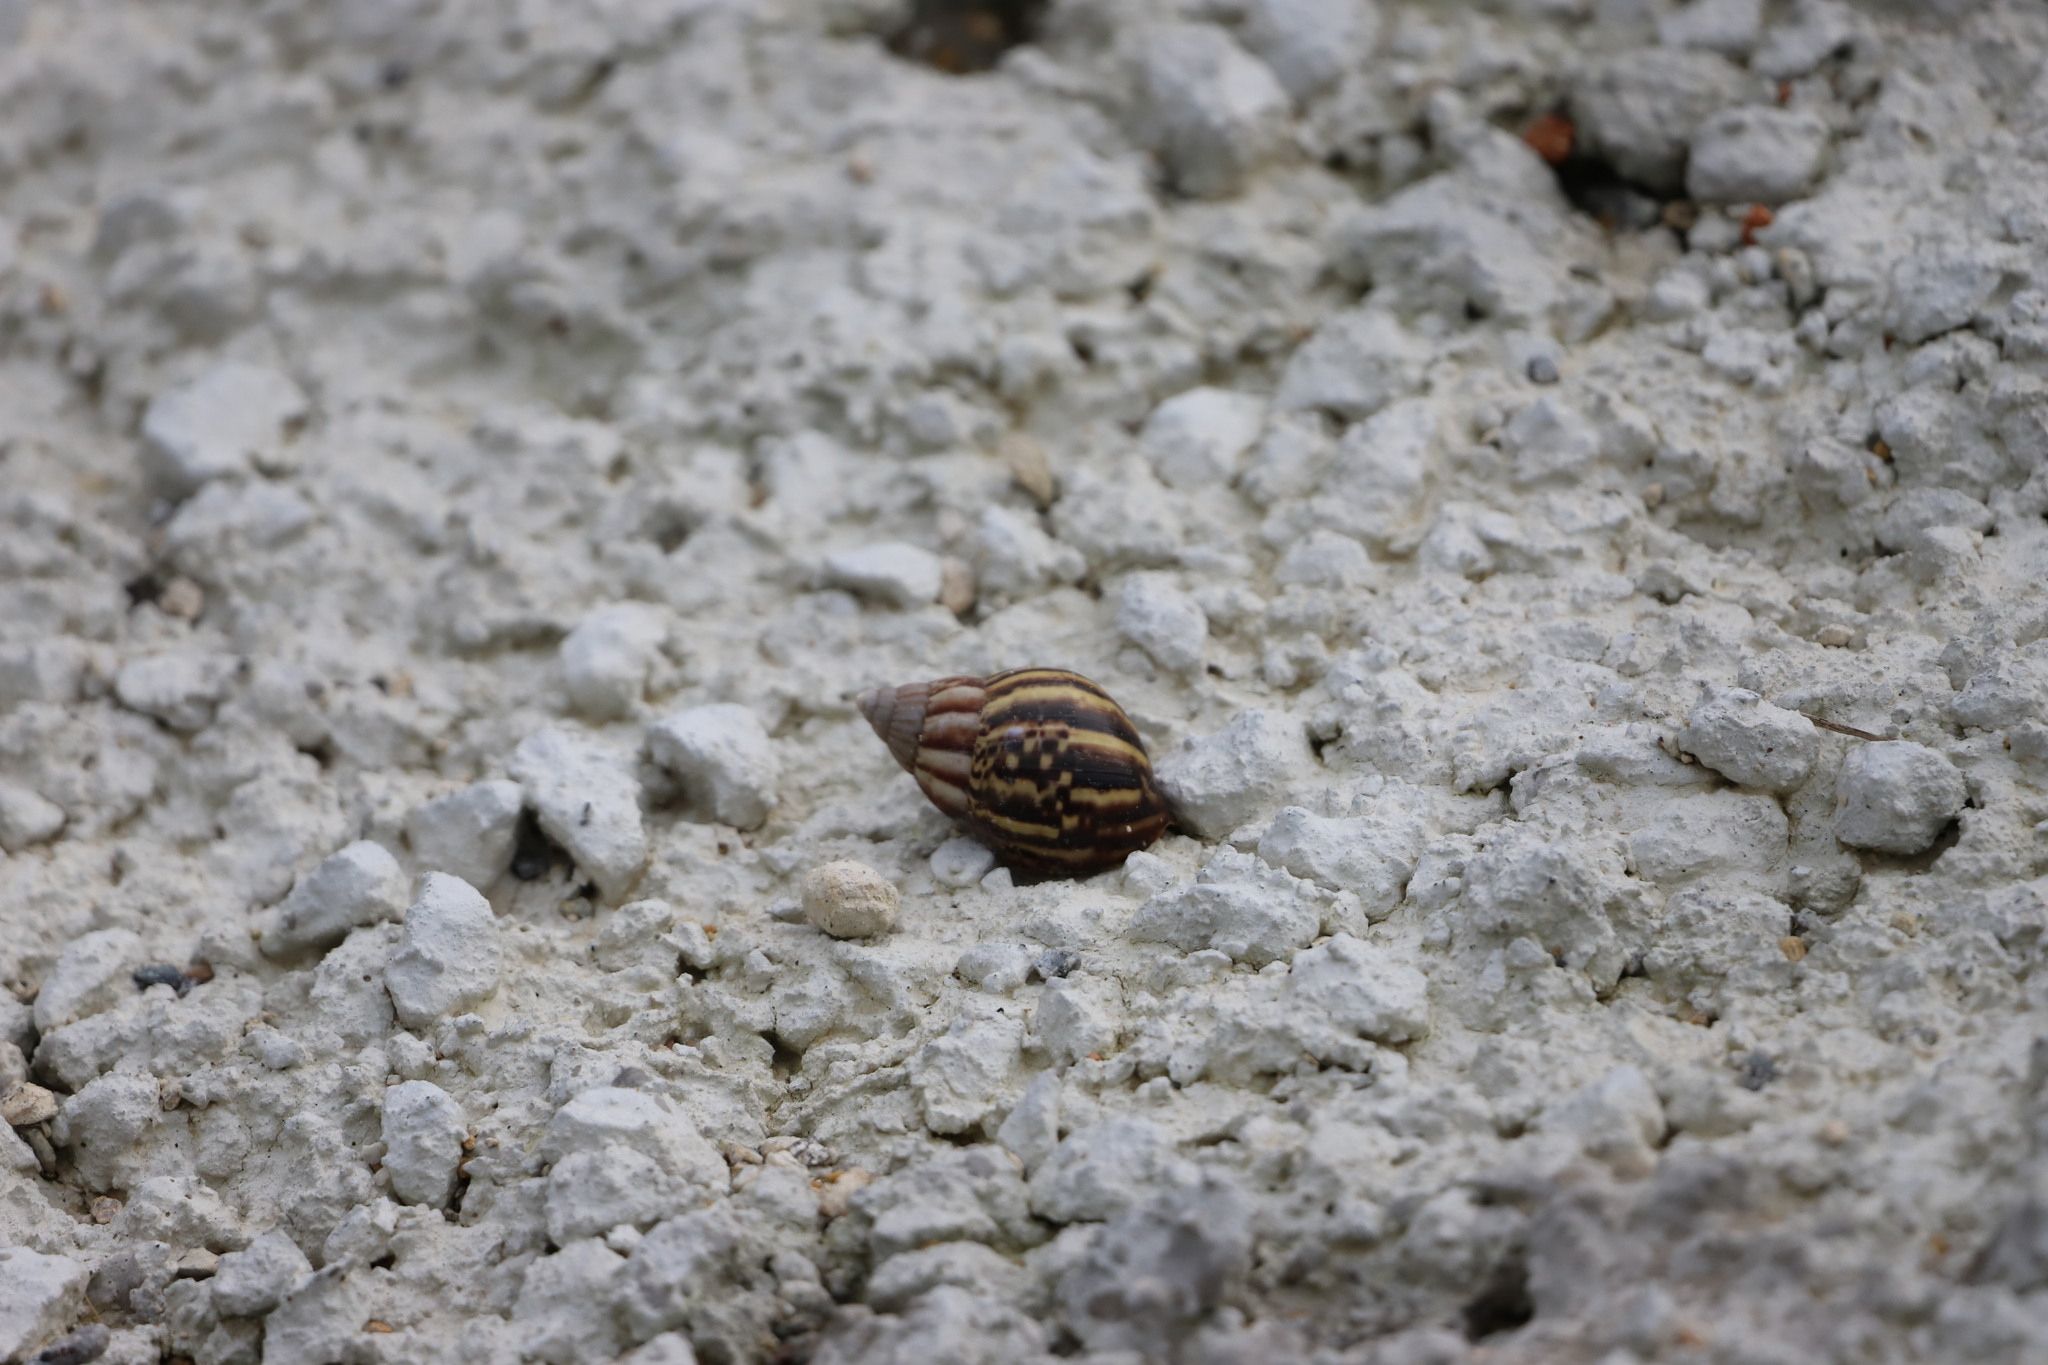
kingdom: Animalia
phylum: Mollusca
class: Gastropoda
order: Stylommatophora
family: Achatinidae
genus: Lissachatina
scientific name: Lissachatina fulica
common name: Giant african snail
